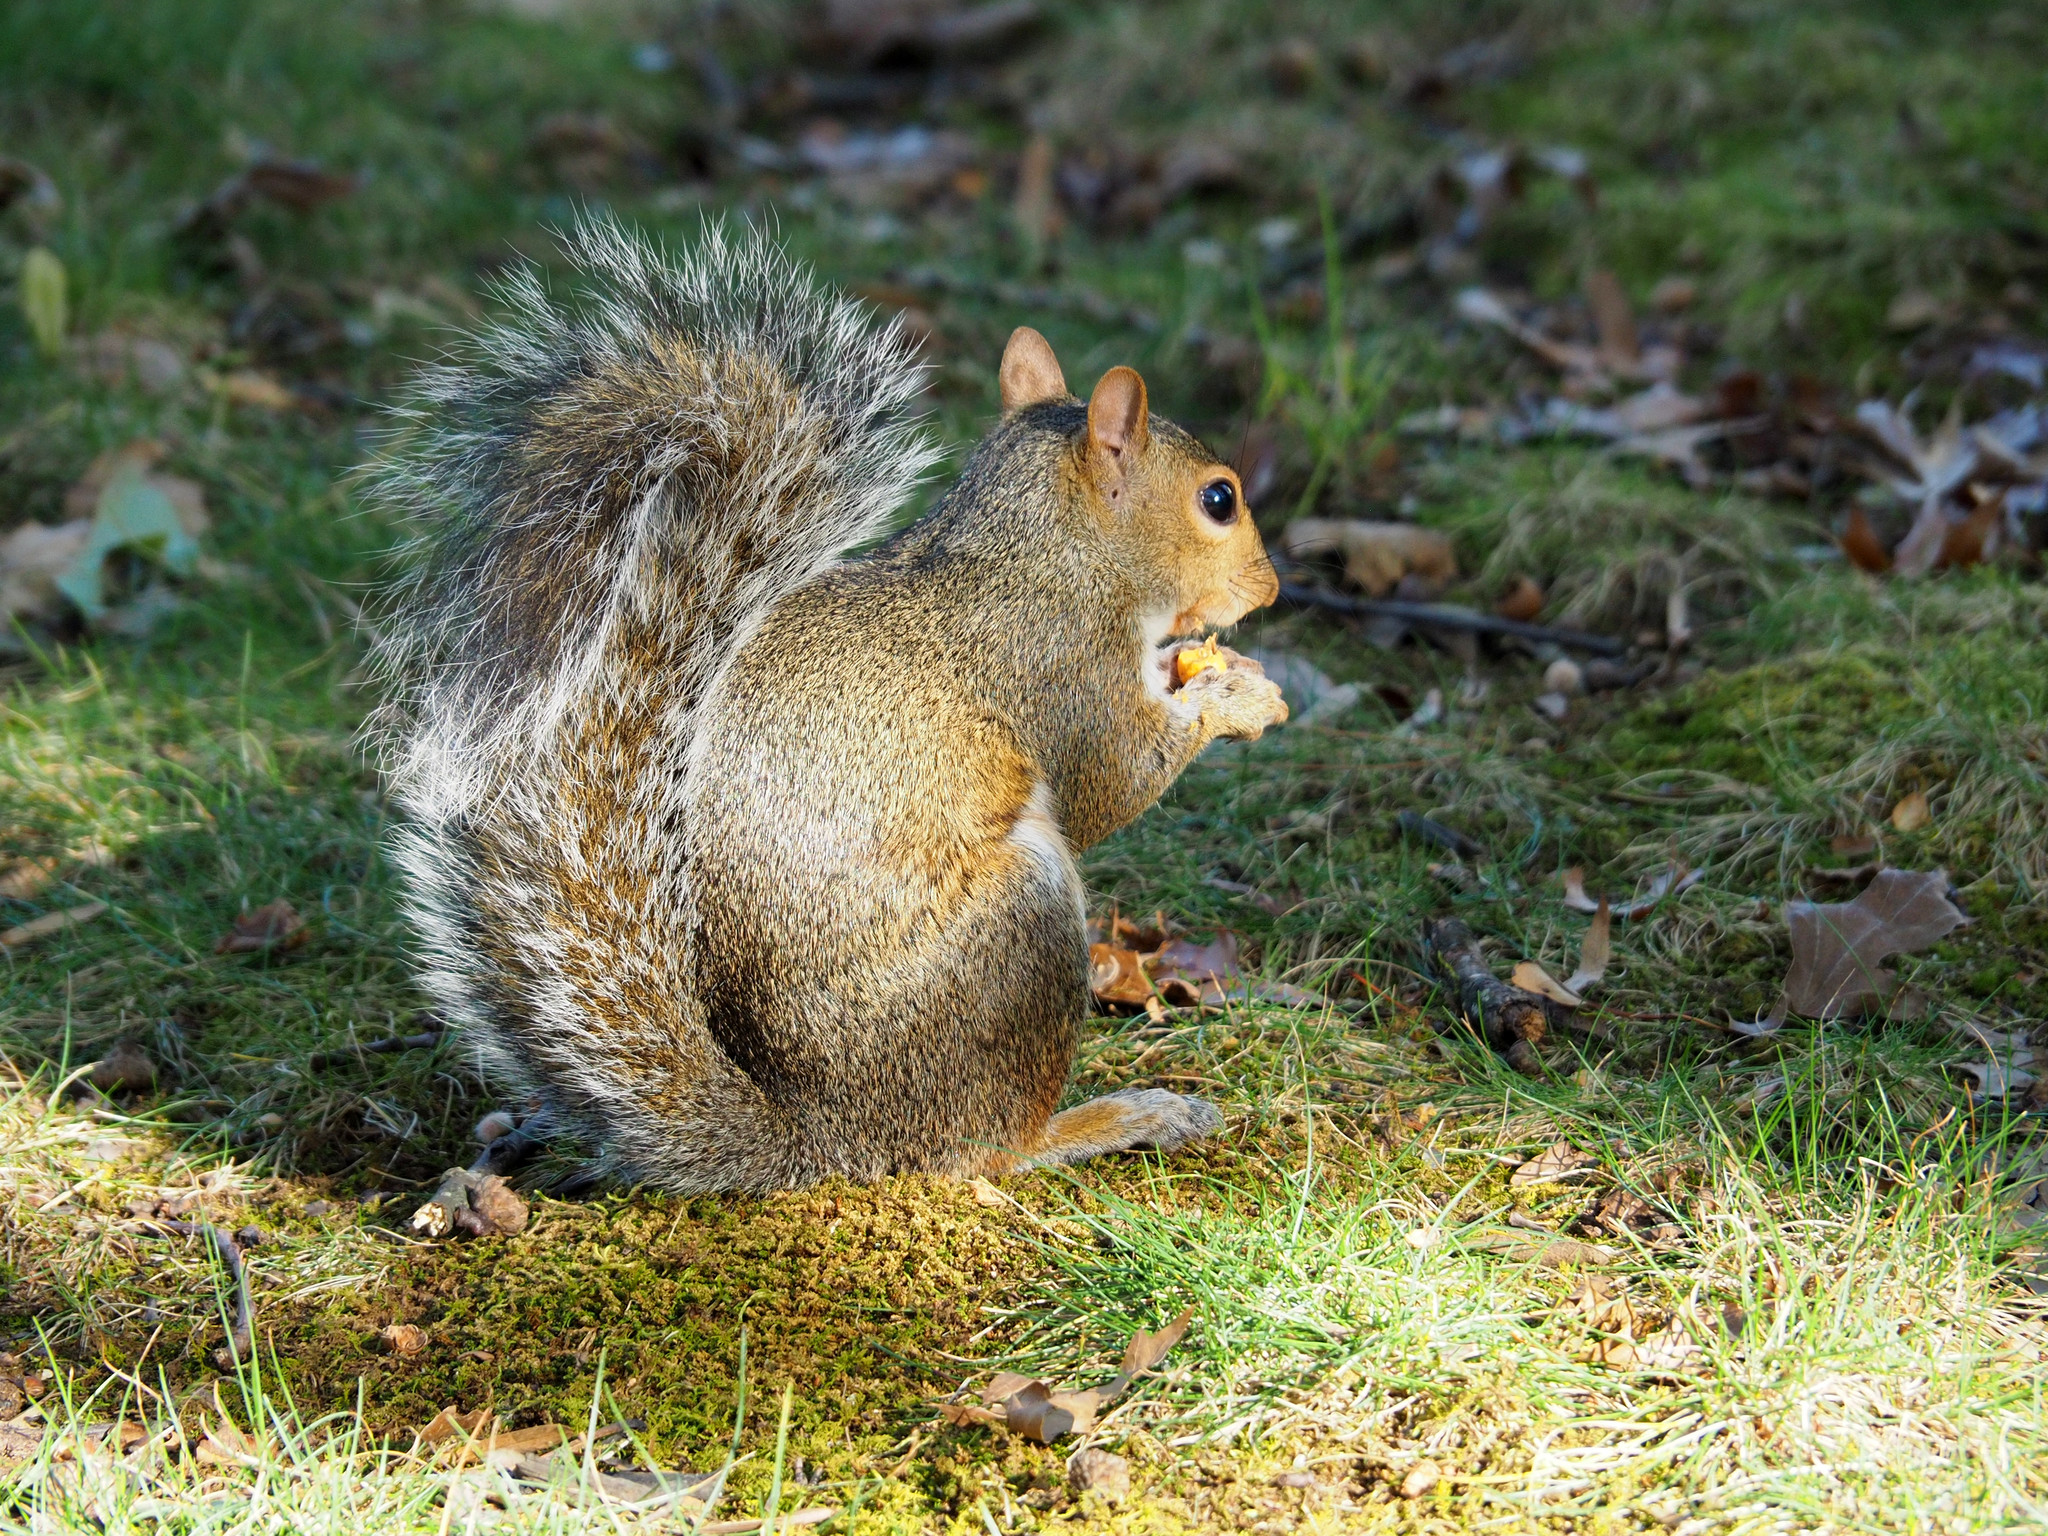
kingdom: Animalia
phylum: Chordata
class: Mammalia
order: Rodentia
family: Sciuridae
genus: Sciurus
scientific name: Sciurus carolinensis
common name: Eastern gray squirrel
